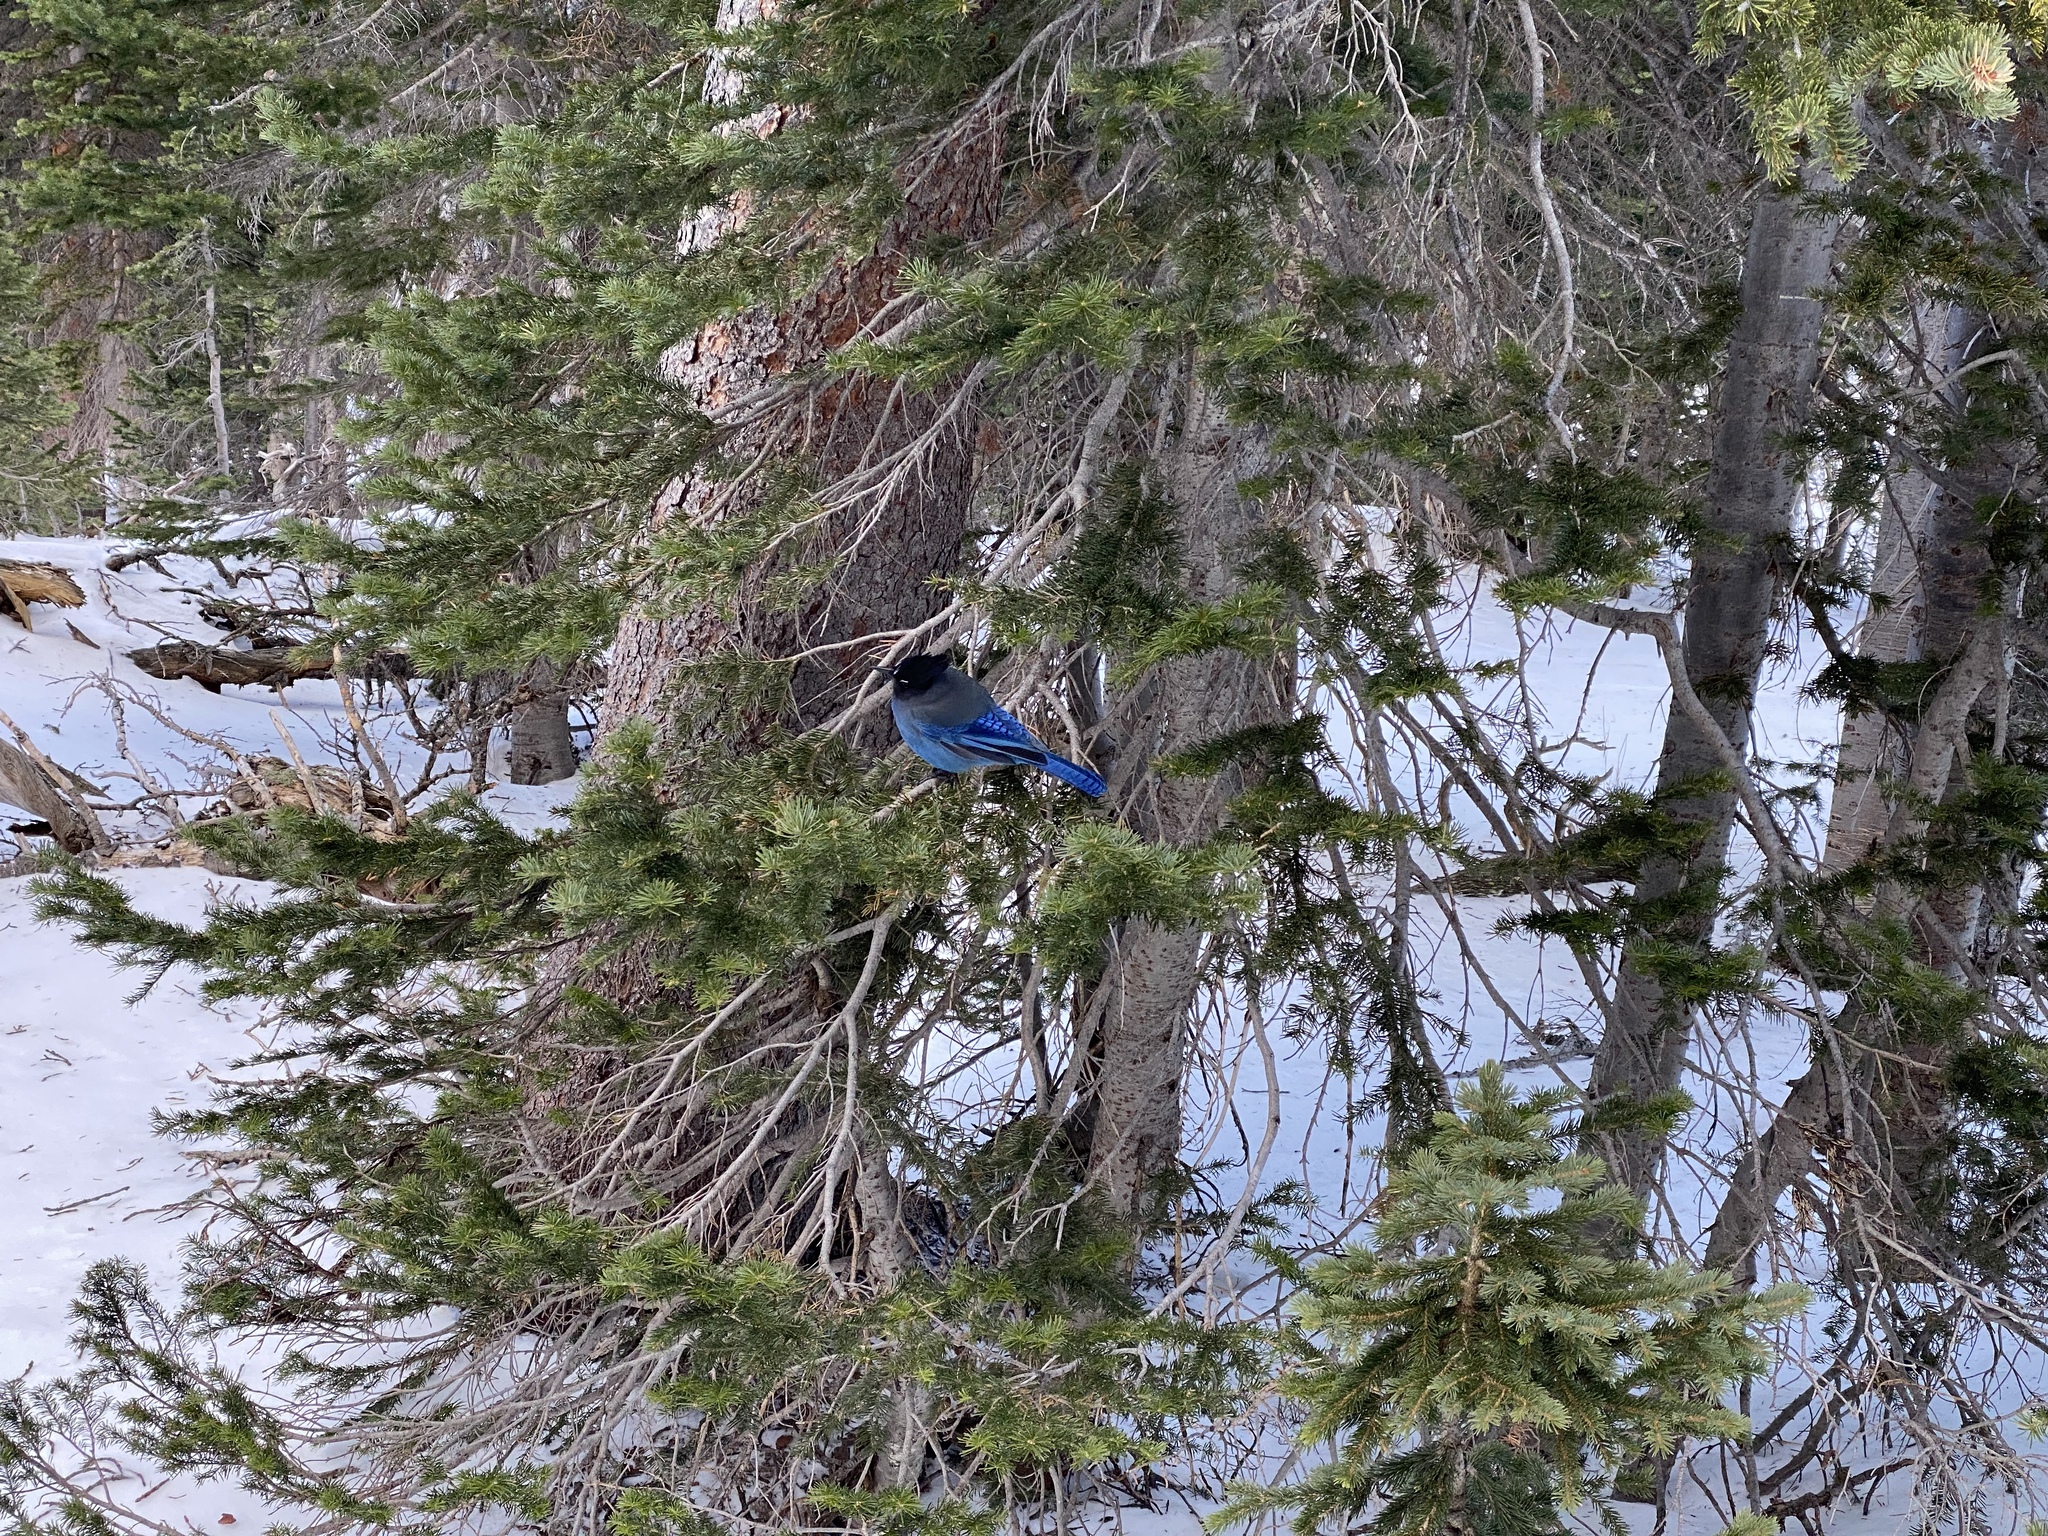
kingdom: Animalia
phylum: Chordata
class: Aves
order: Passeriformes
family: Corvidae
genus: Cyanocitta
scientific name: Cyanocitta stelleri
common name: Steller's jay
